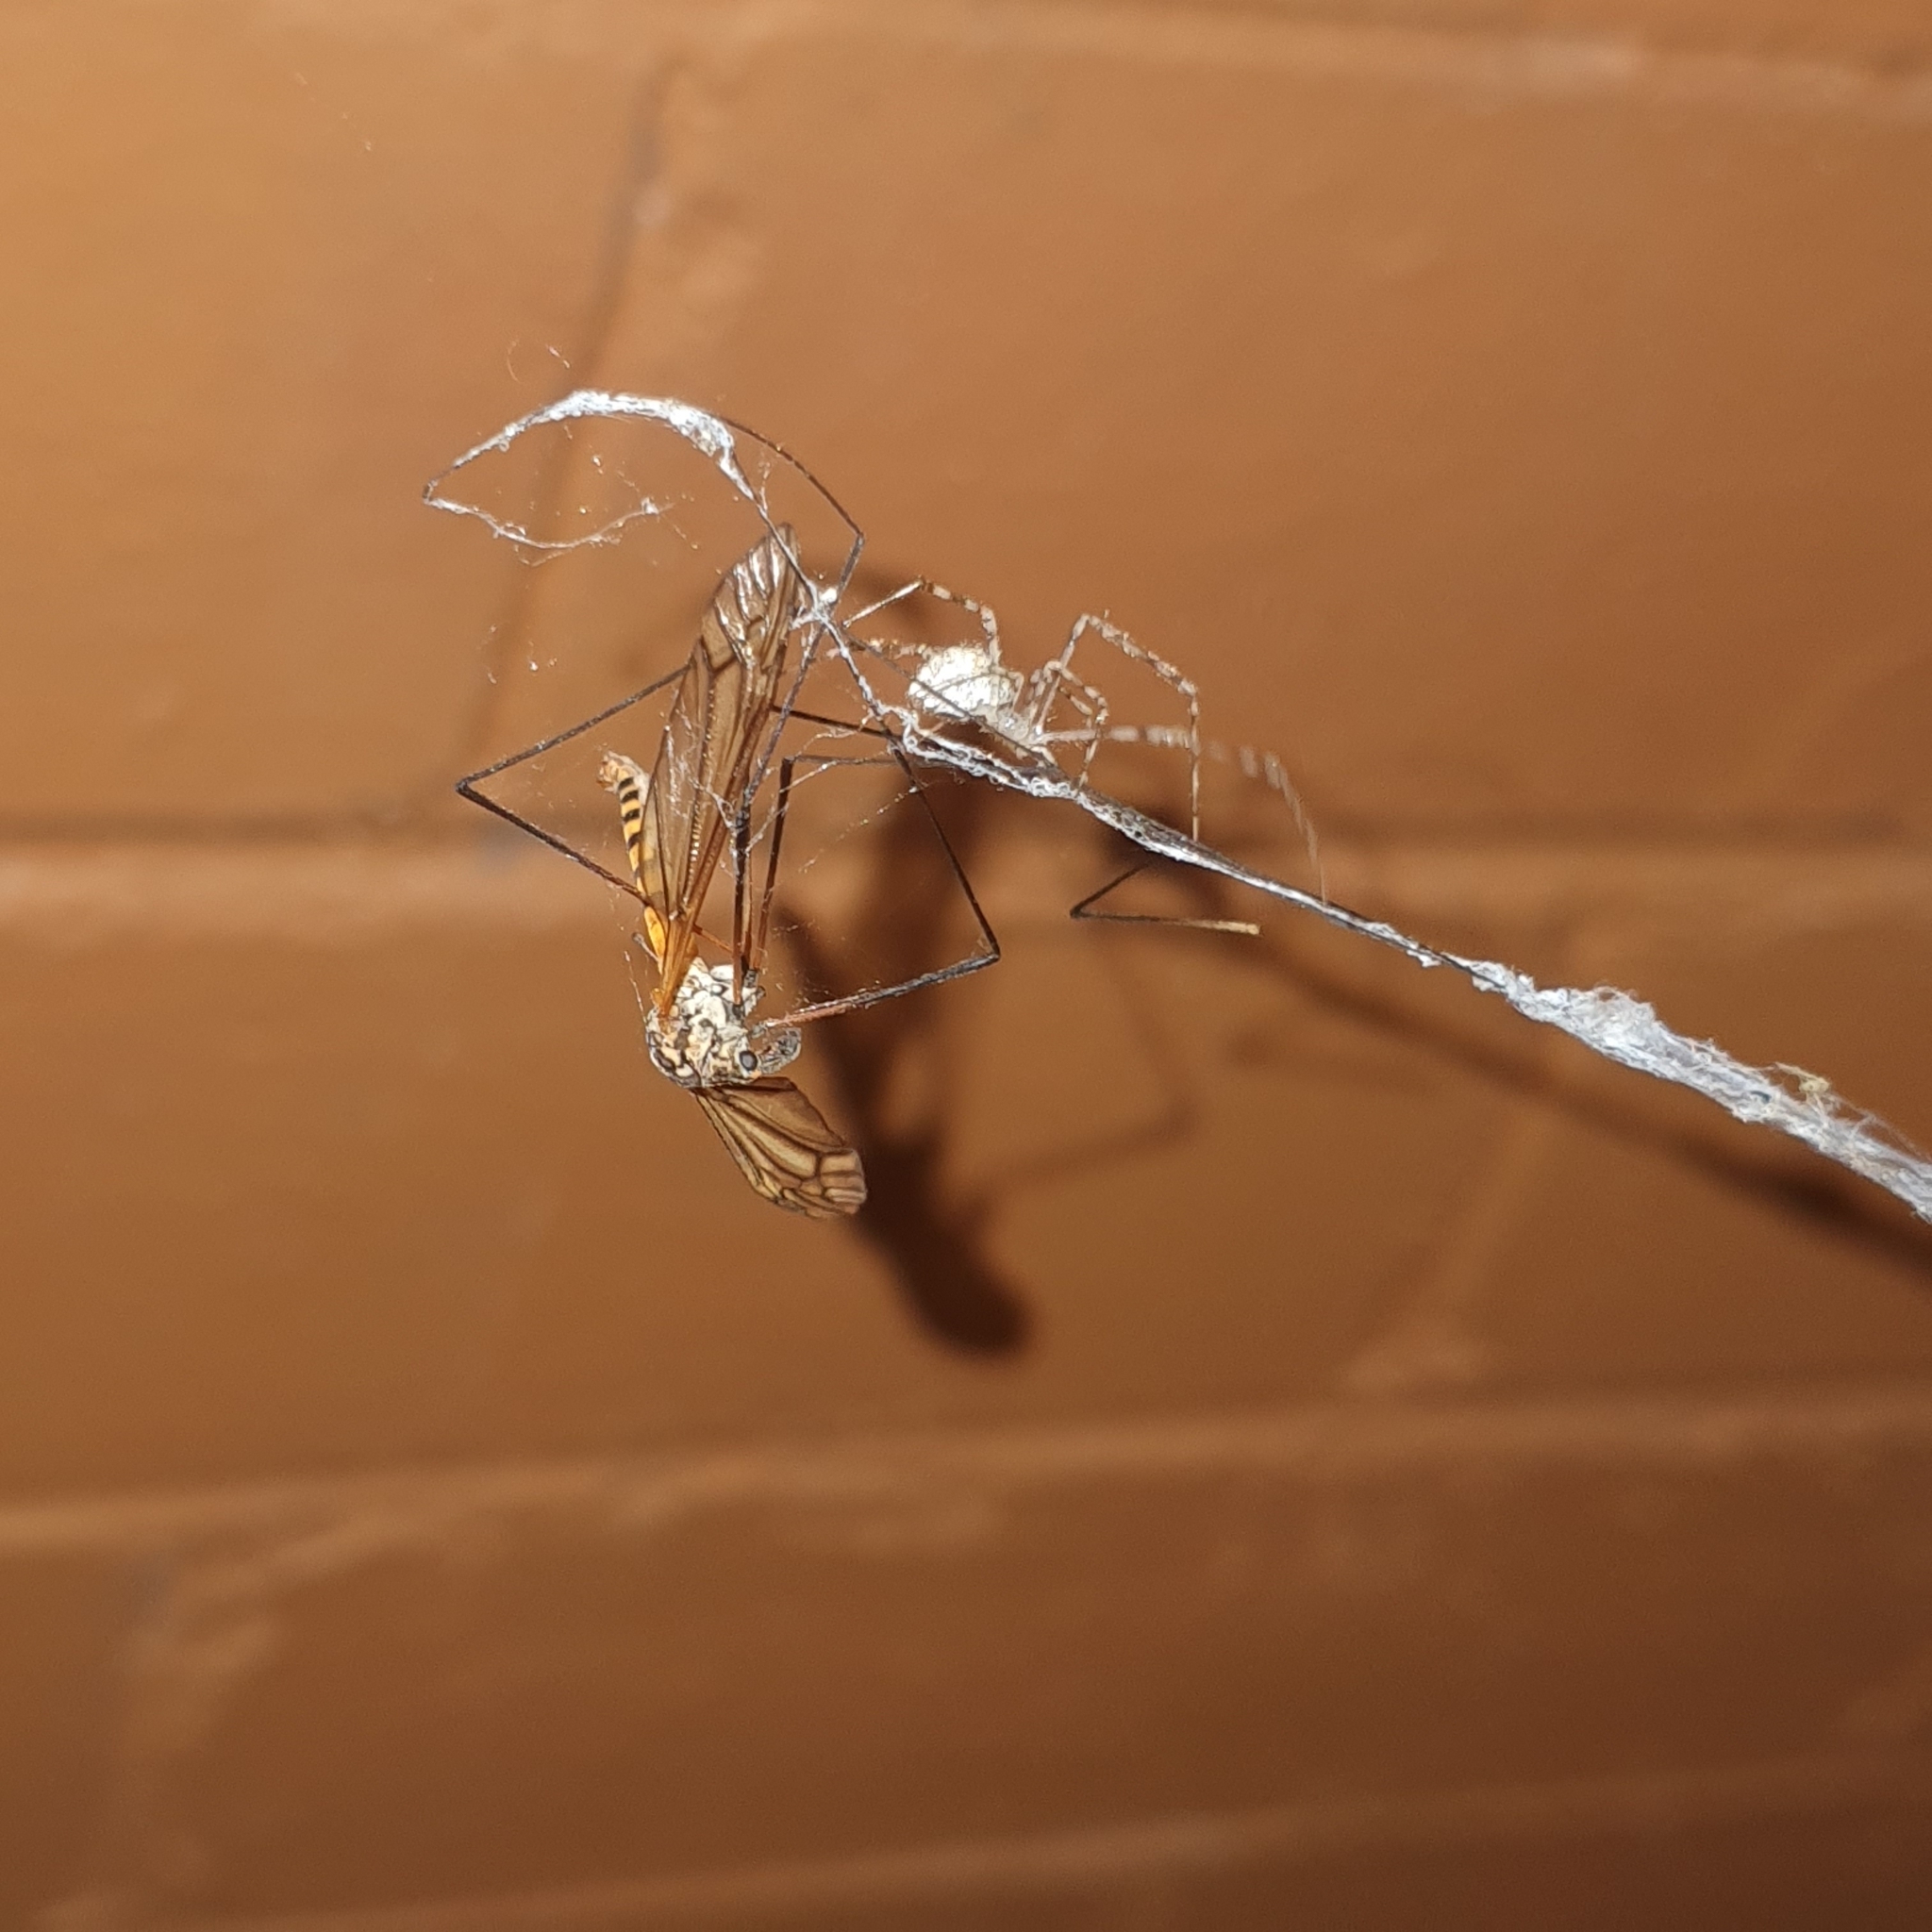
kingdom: Animalia
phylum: Arthropoda
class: Arachnida
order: Araneae
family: Theridiidae
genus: Cryptachaea
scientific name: Cryptachaea gigantipes
